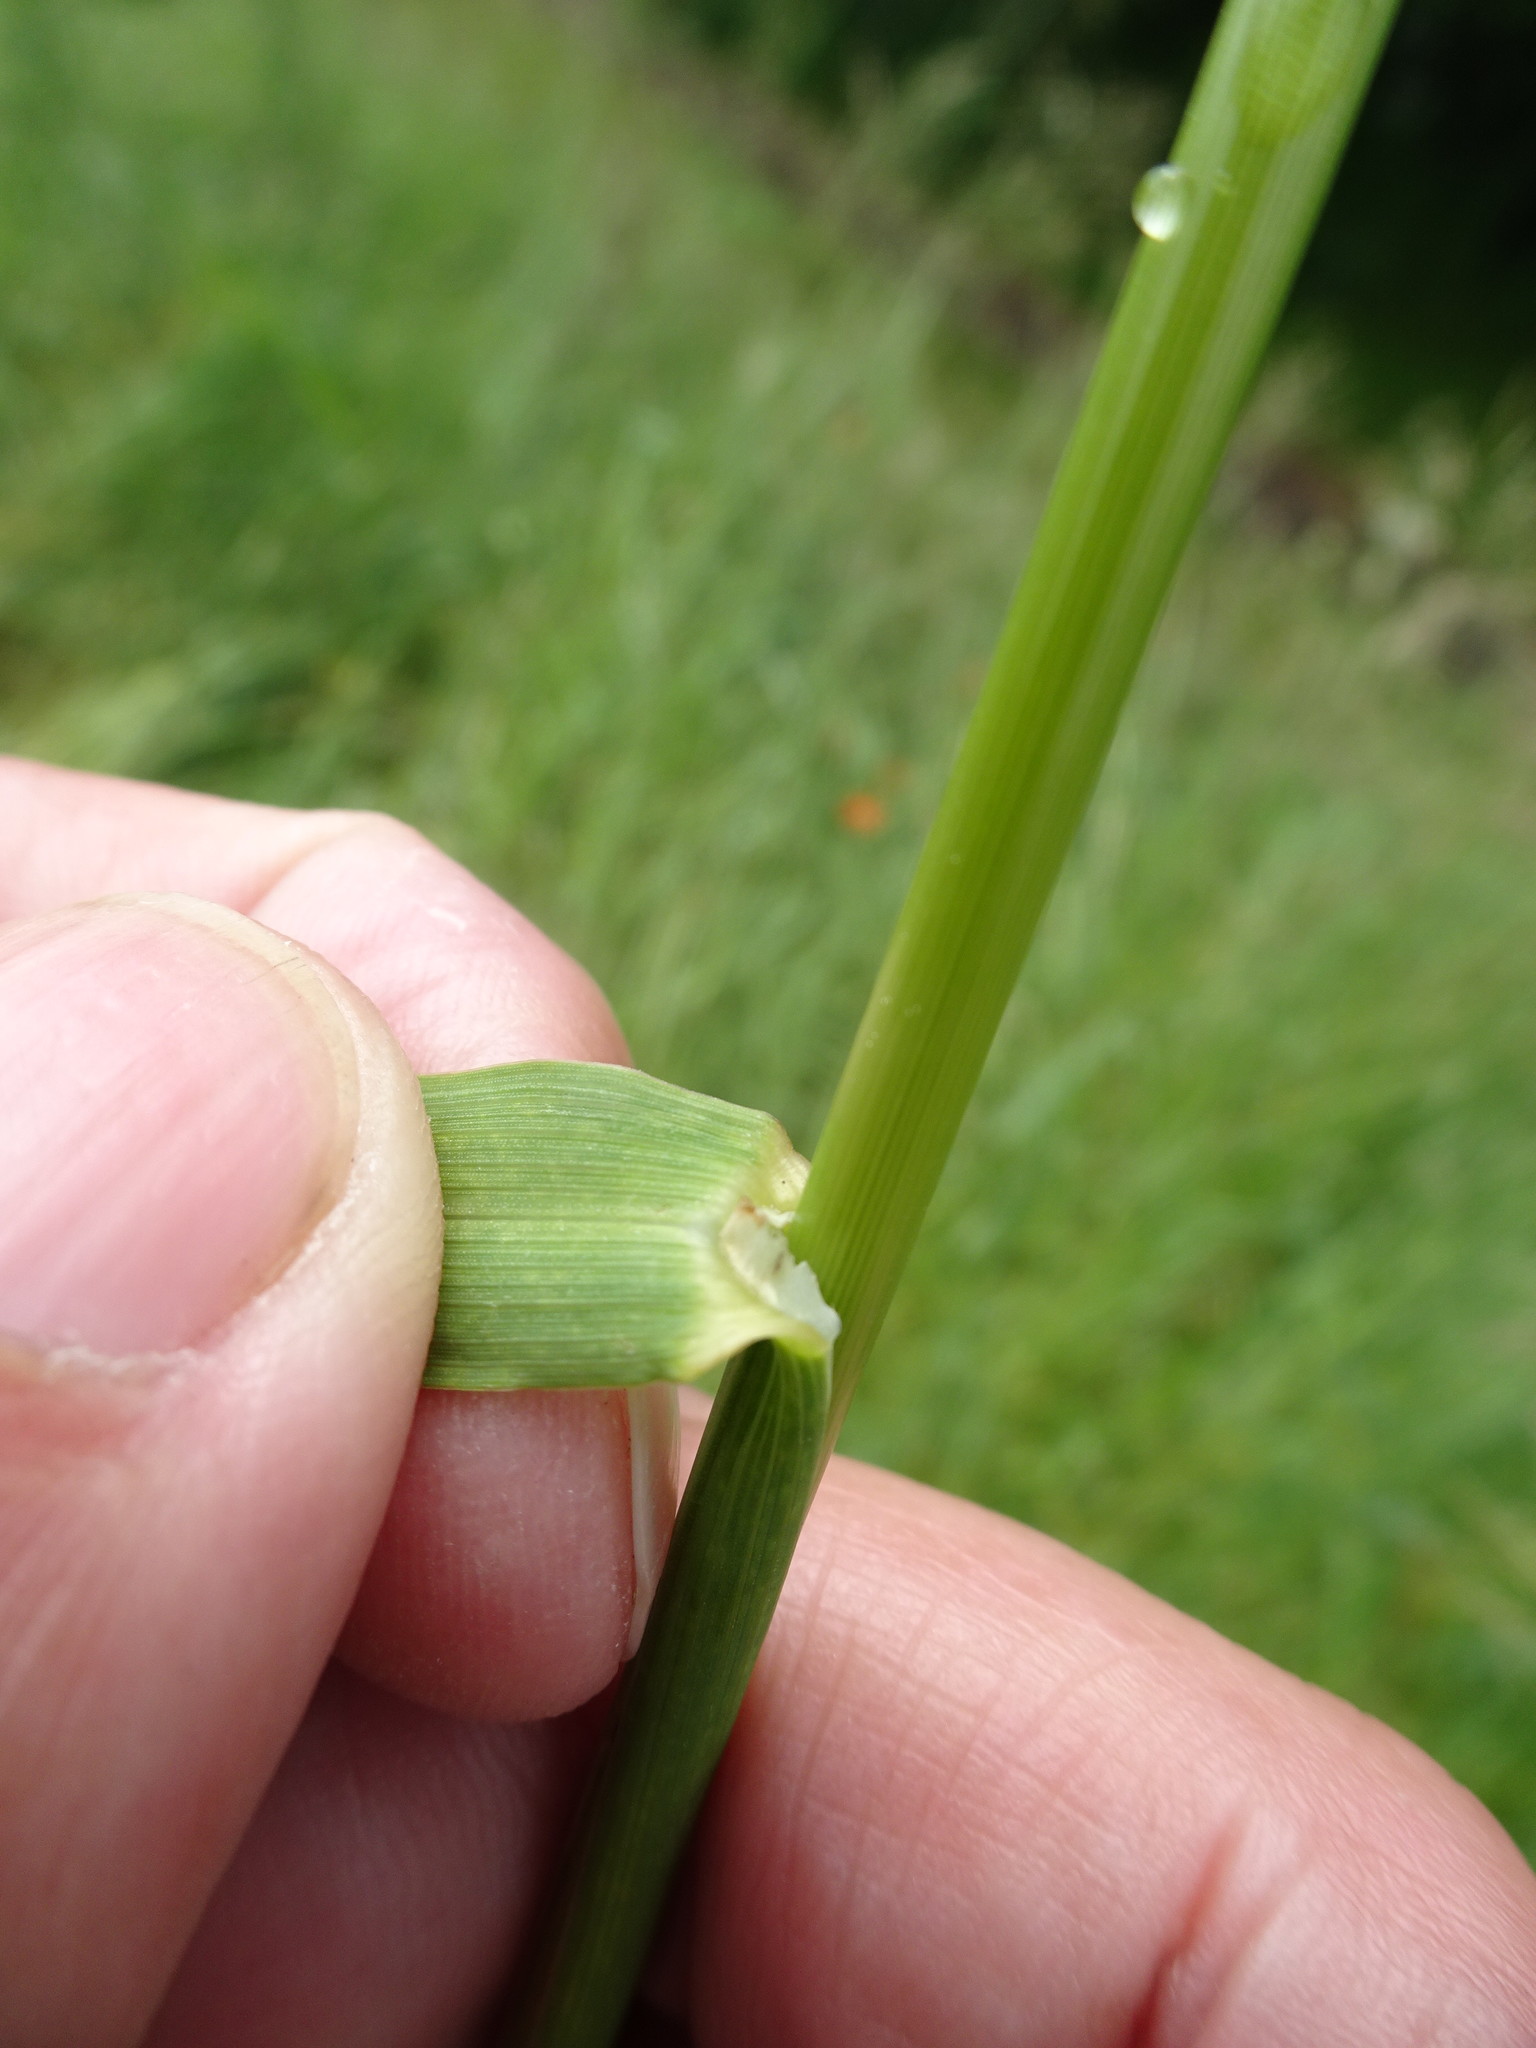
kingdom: Plantae
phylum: Tracheophyta
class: Liliopsida
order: Poales
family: Poaceae
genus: Bromus
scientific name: Bromus inermis
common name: Smooth brome
